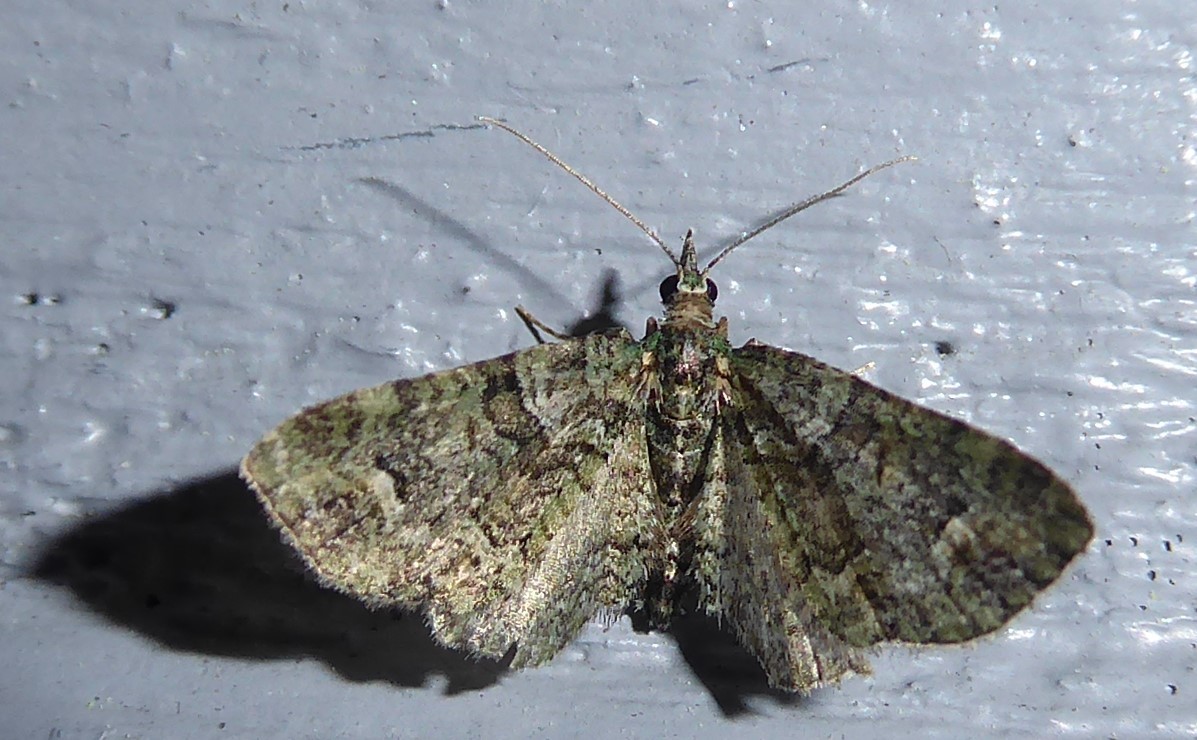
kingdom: Animalia
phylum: Arthropoda
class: Insecta
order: Lepidoptera
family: Geometridae
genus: Idaea
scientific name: Idaea mutanda
